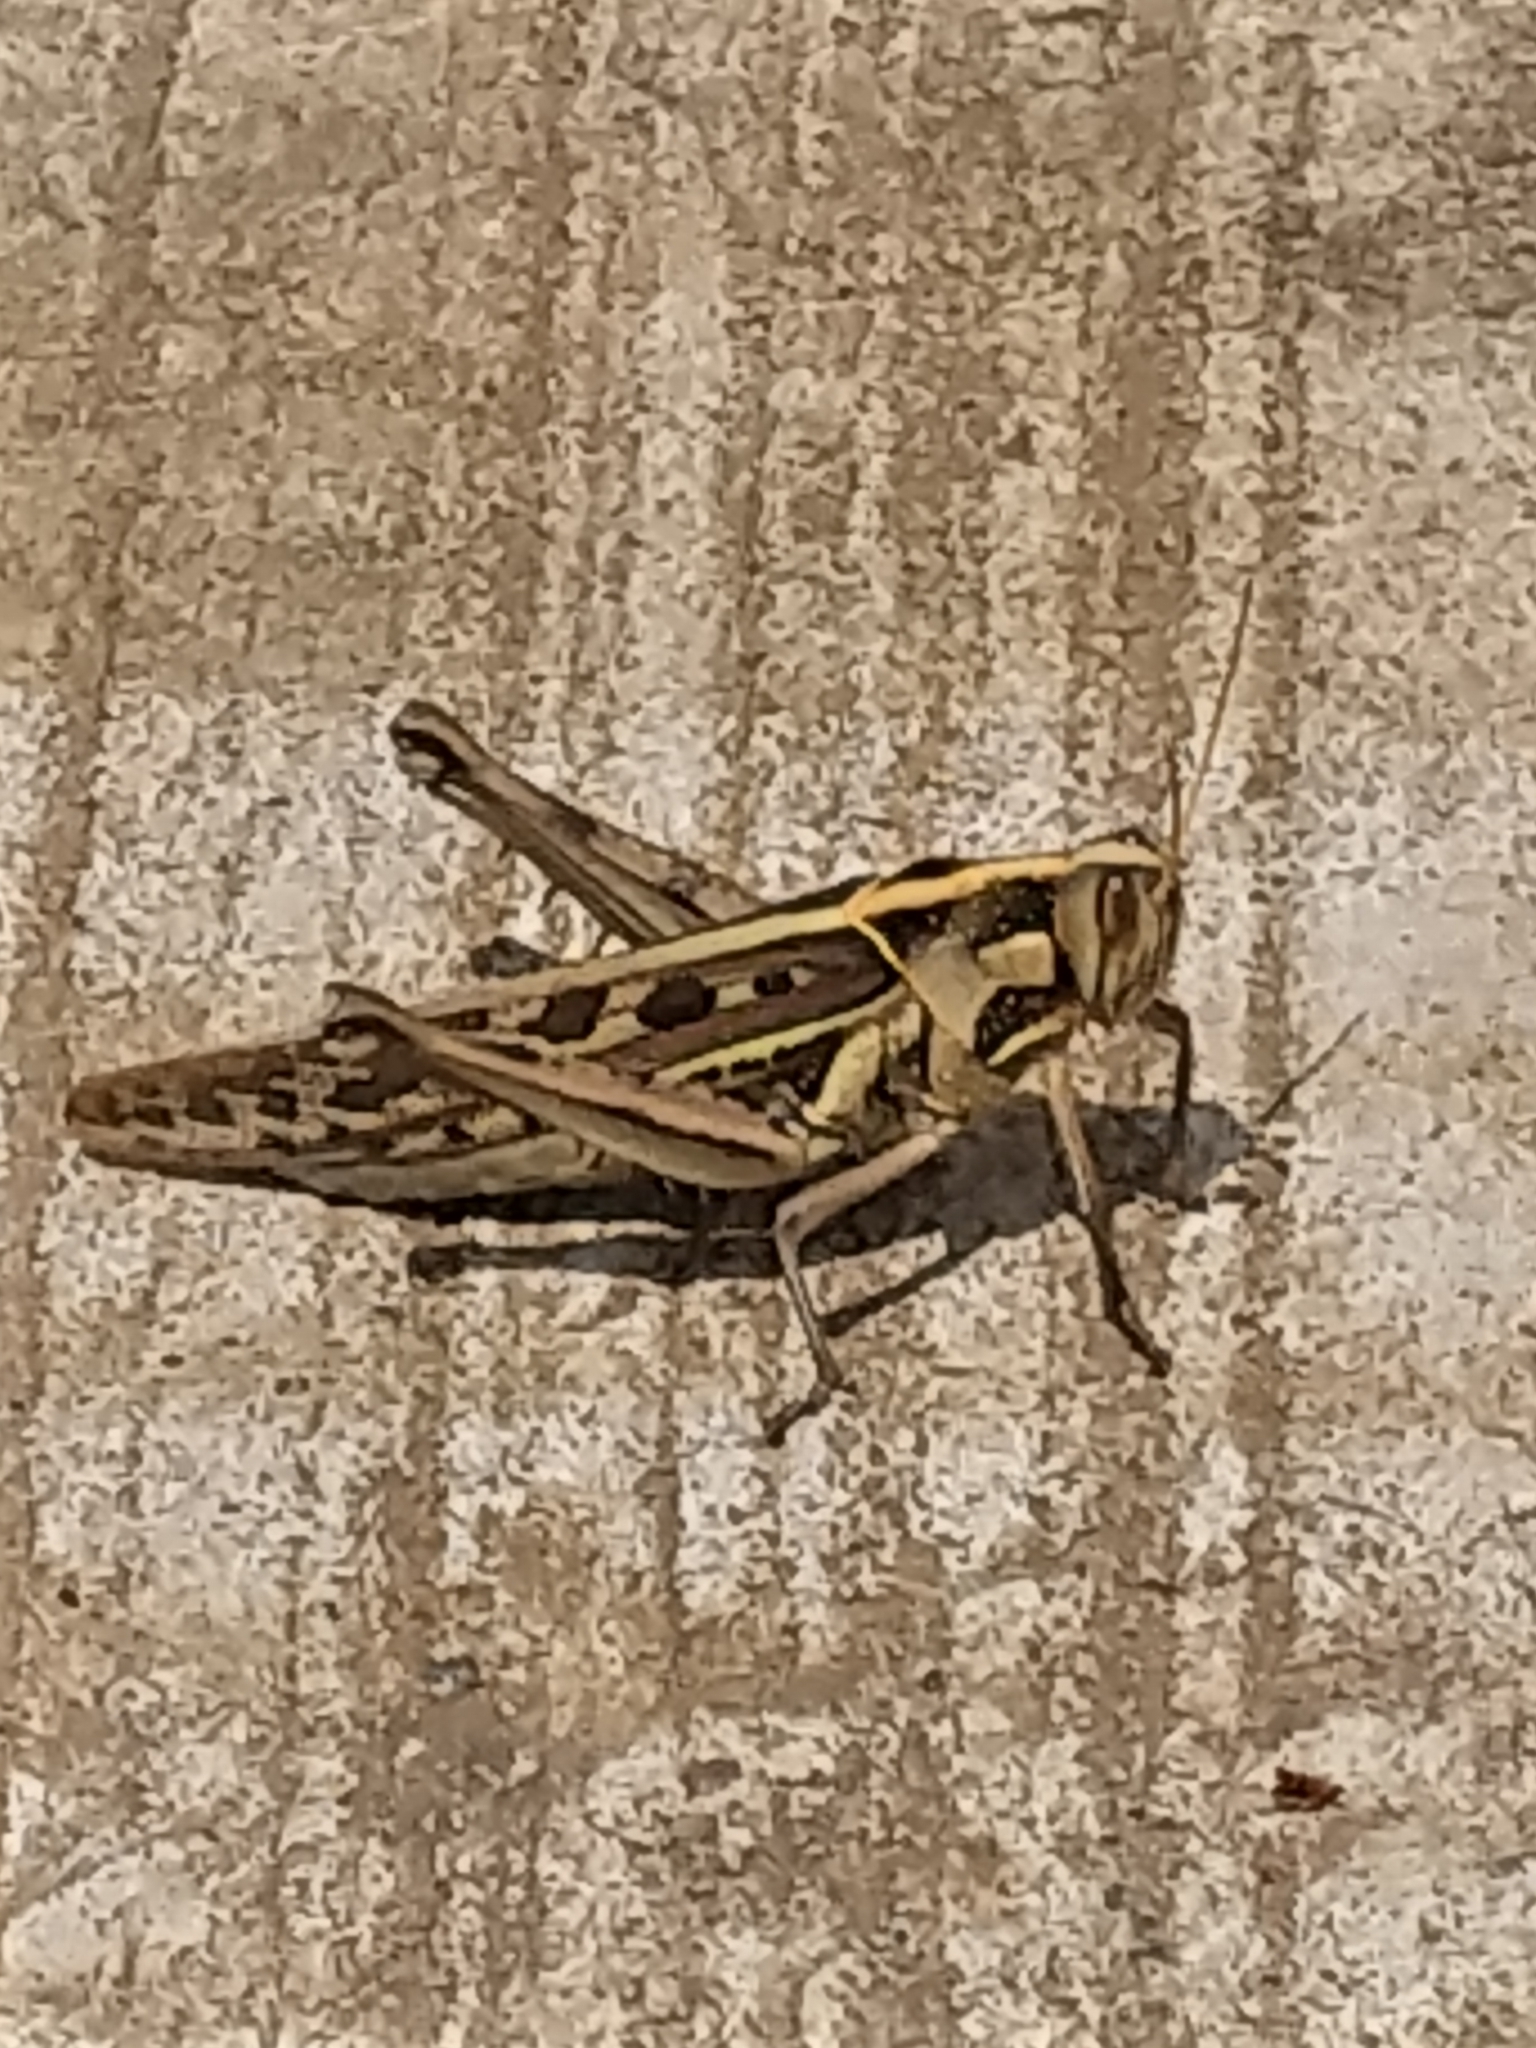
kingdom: Animalia
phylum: Arthropoda
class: Insecta
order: Orthoptera
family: Acrididae
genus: Cyrtacanthacris
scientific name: Cyrtacanthacris tatarica
